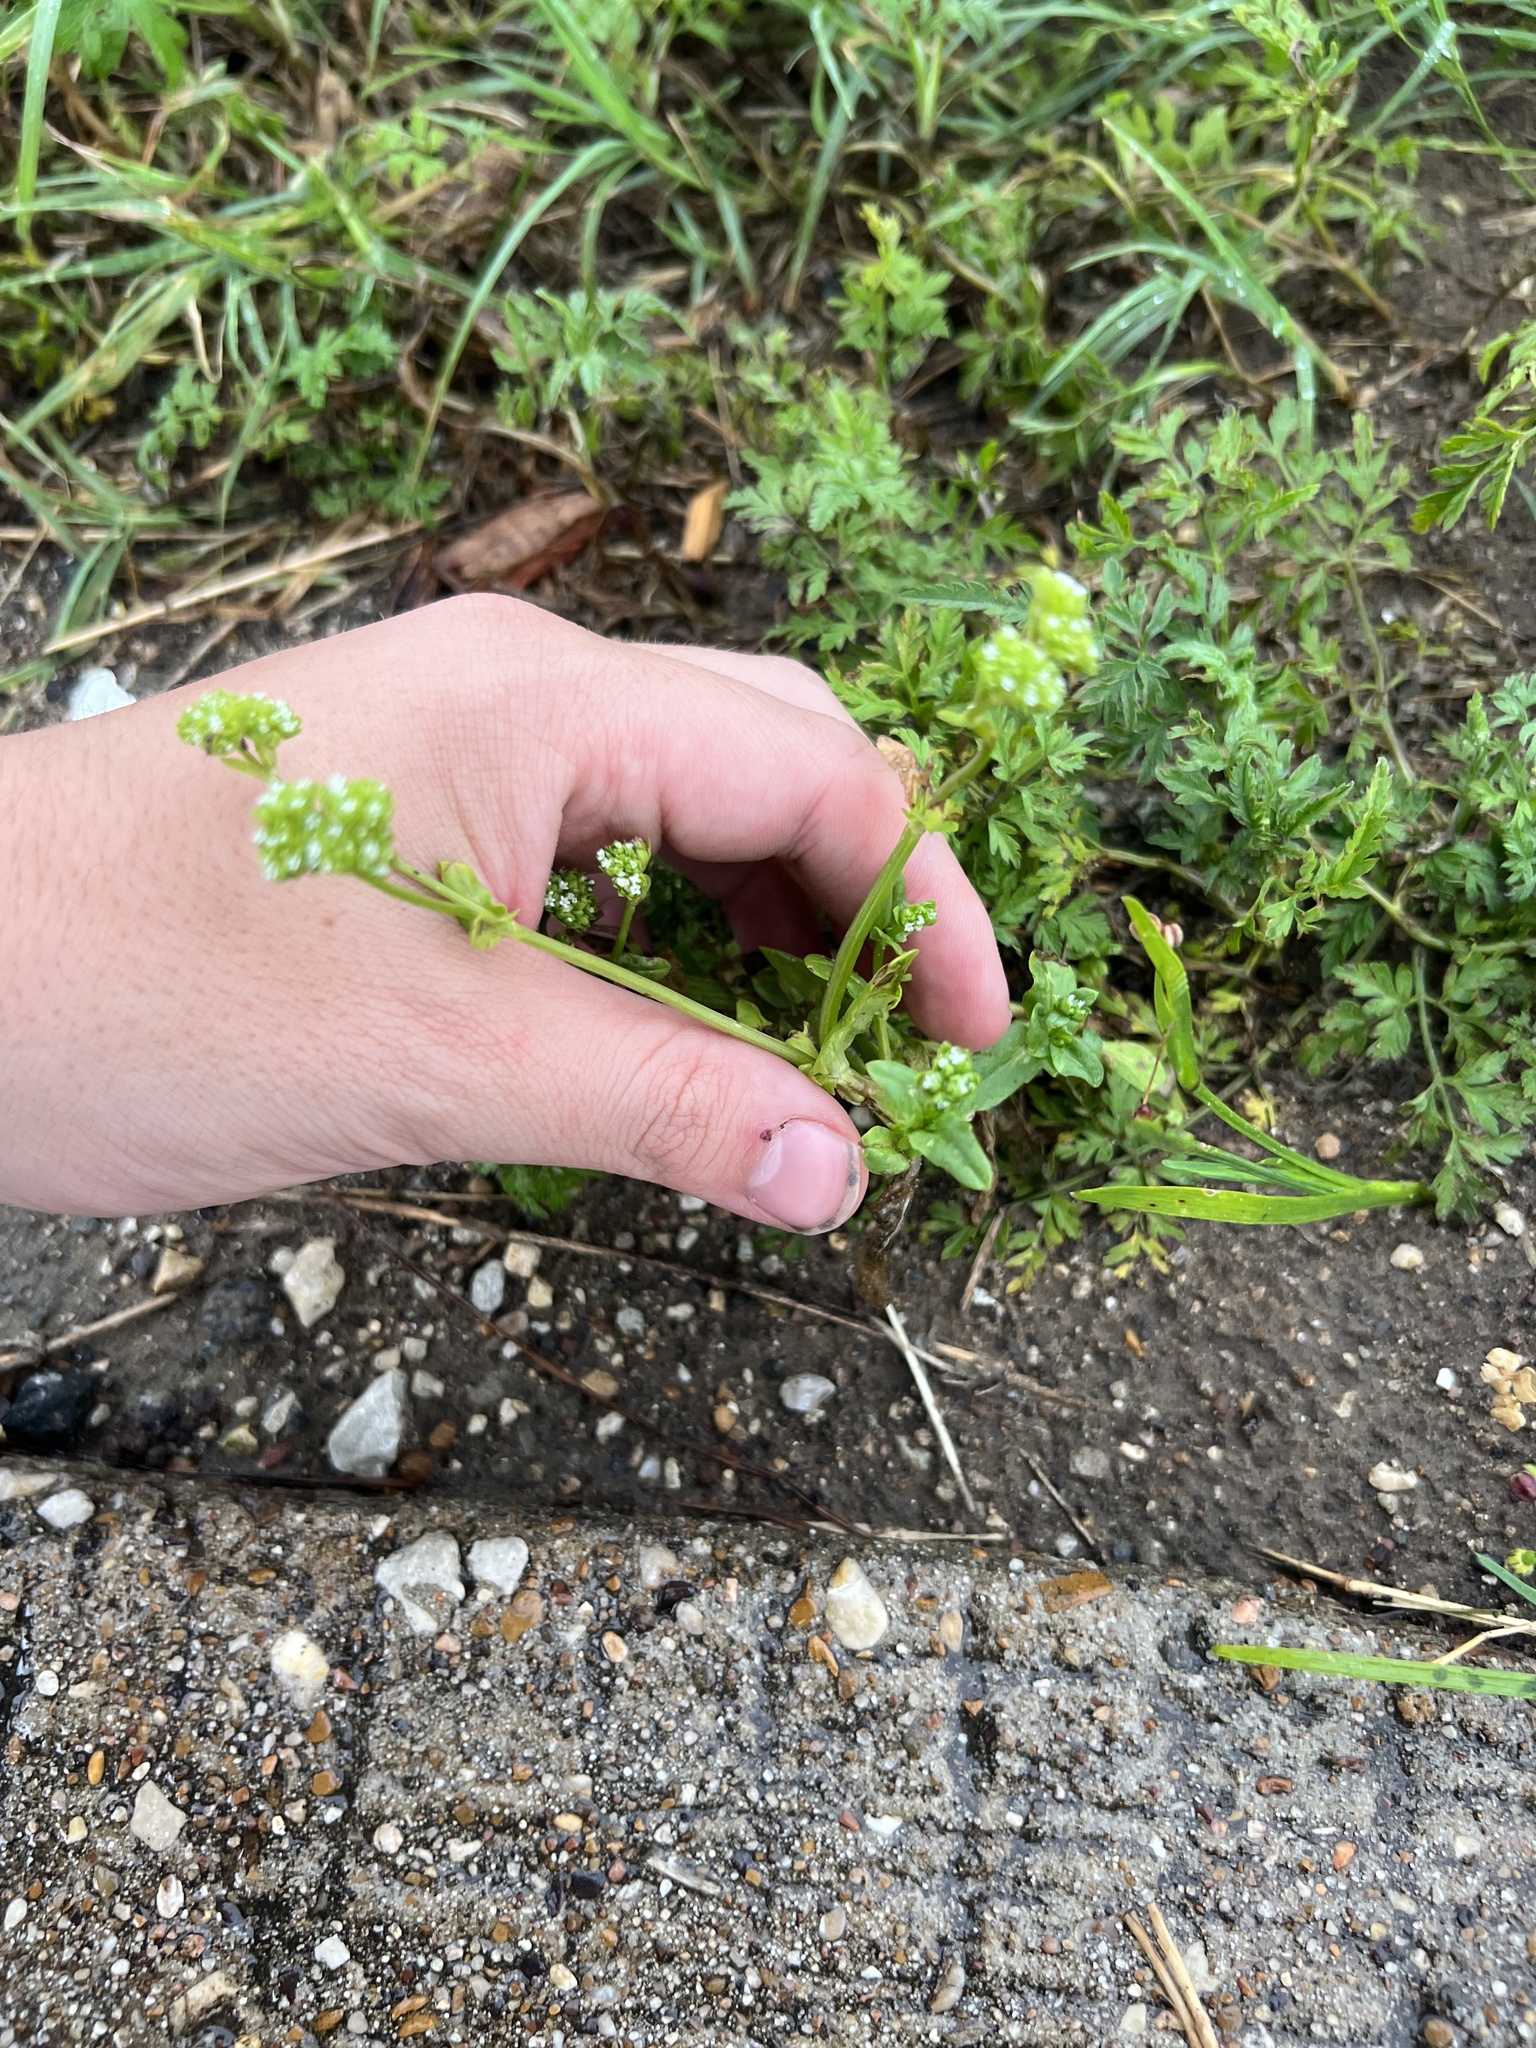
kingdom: Plantae
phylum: Tracheophyta
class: Magnoliopsida
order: Dipsacales
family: Caprifoliaceae
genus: Valerianella
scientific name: Valerianella radiata
